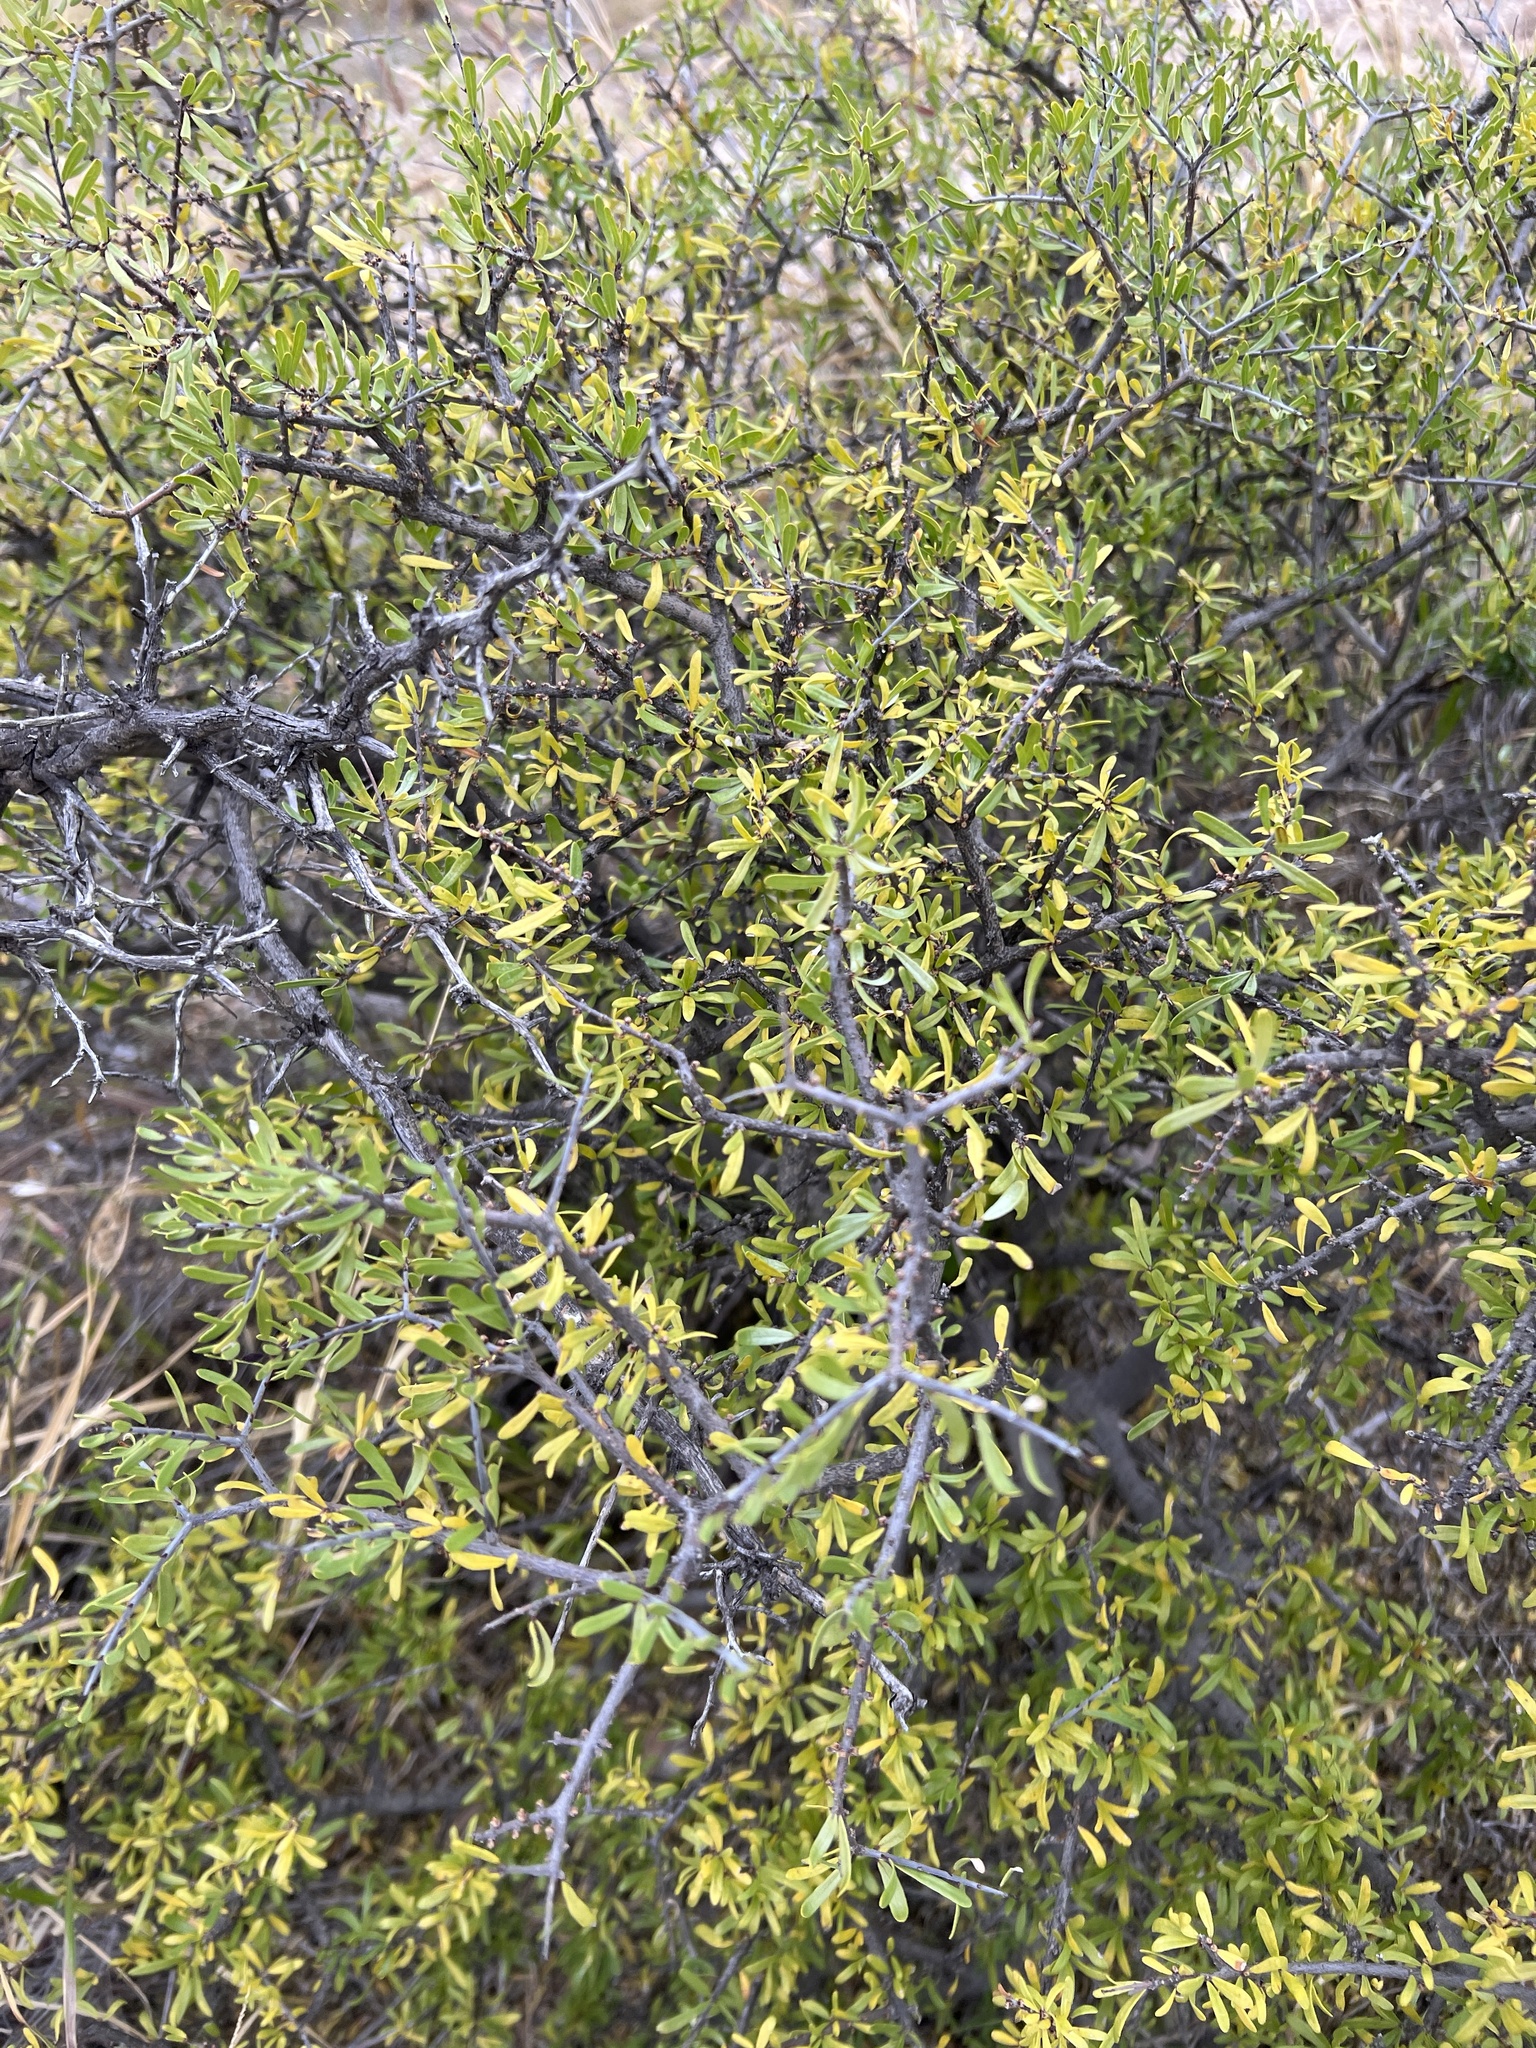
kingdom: Plantae
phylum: Tracheophyta
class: Magnoliopsida
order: Lamiales
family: Oleaceae
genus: Forestiera
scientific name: Forestiera angustifolia
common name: Elbowbush
